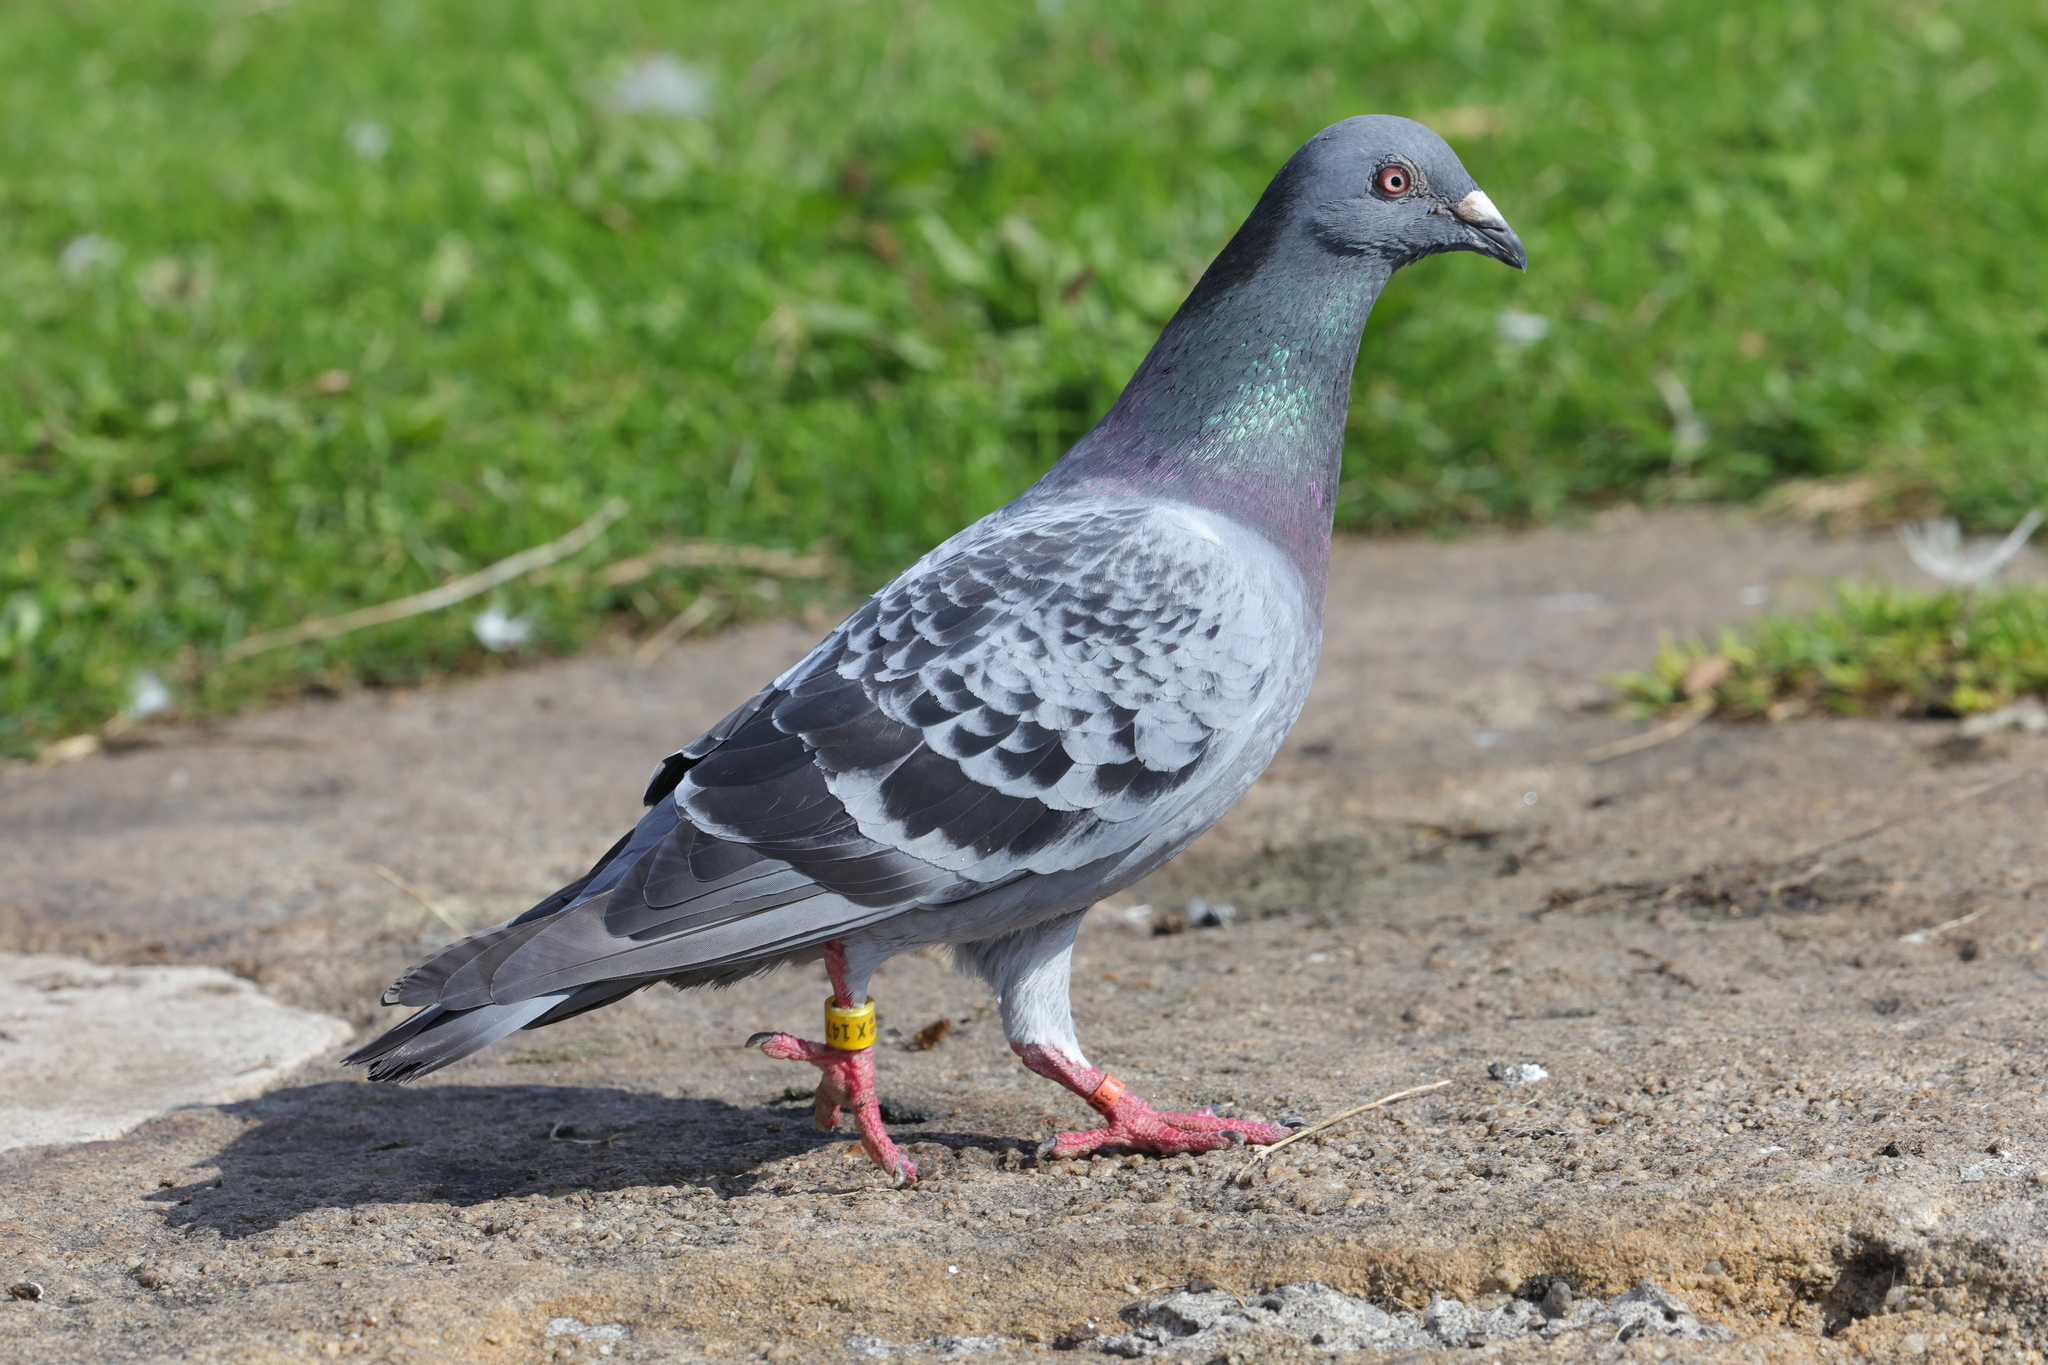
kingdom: Animalia
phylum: Chordata
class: Aves
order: Columbiformes
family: Columbidae
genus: Columba
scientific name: Columba livia
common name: Rock pigeon
